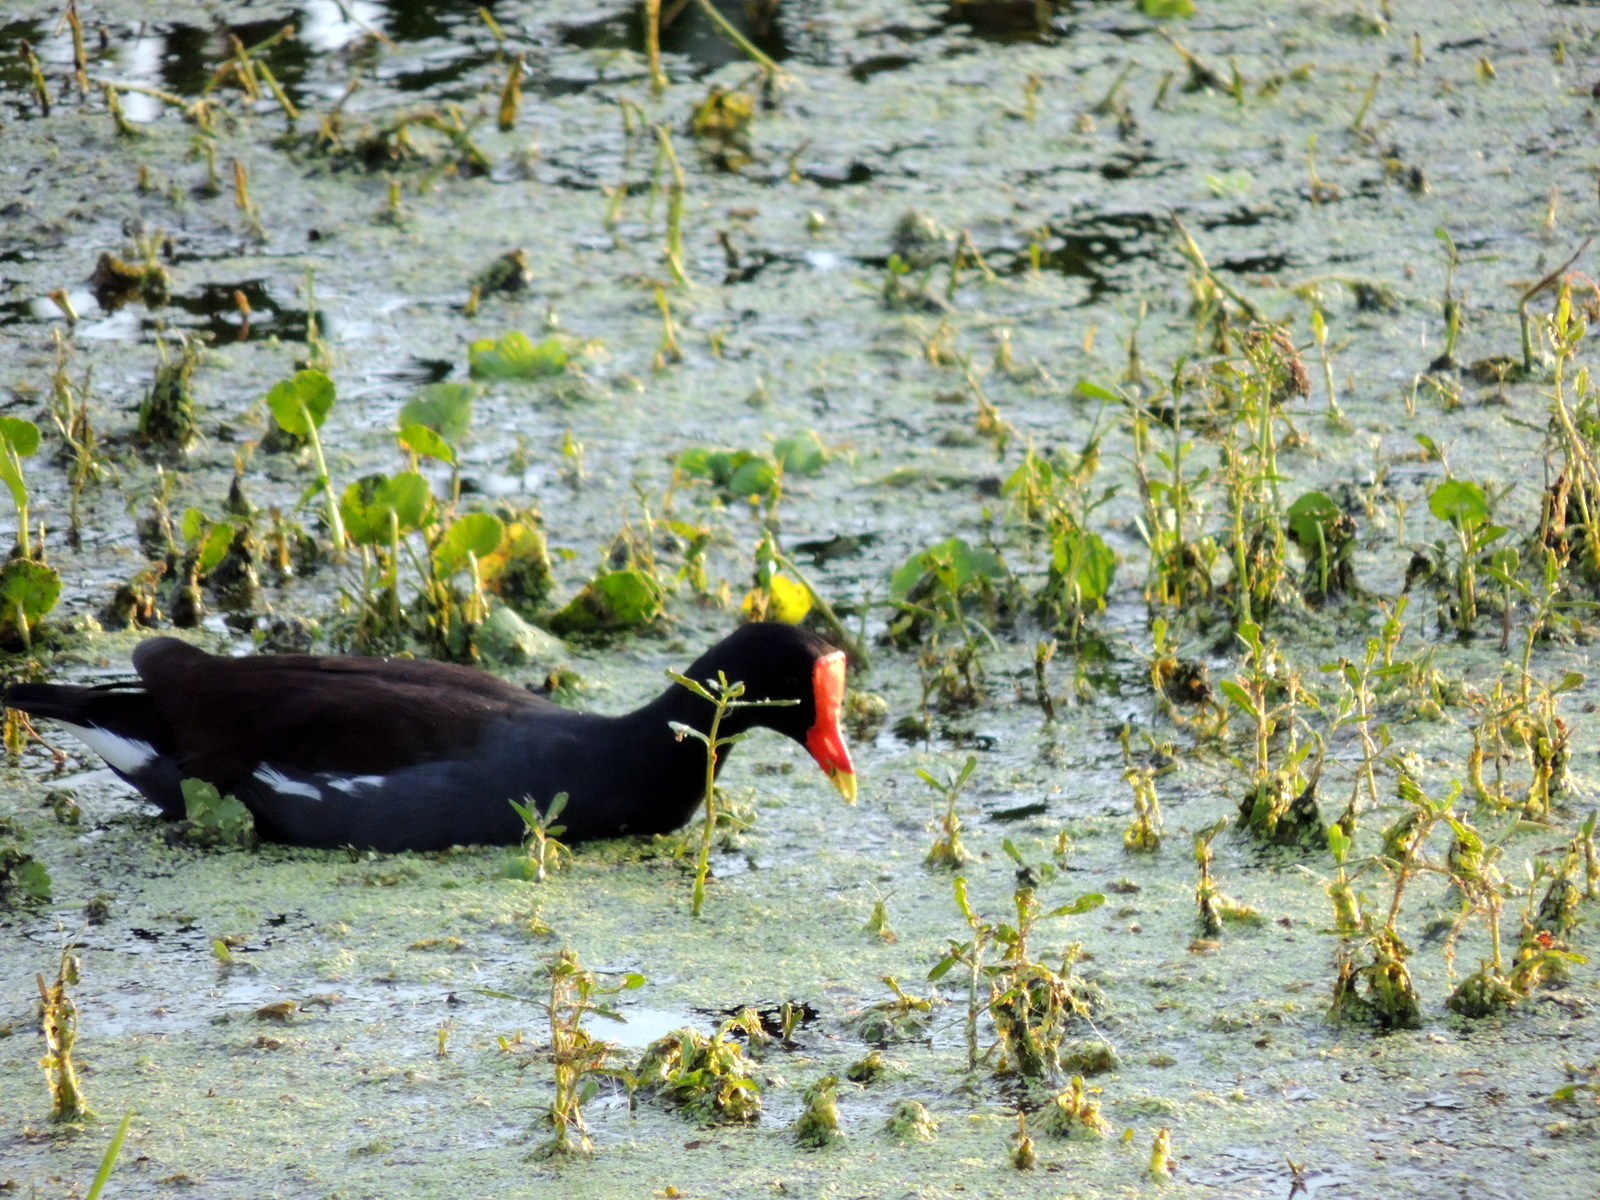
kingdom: Animalia
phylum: Chordata
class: Aves
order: Gruiformes
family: Rallidae
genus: Gallinula
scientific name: Gallinula chloropus
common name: Common moorhen
